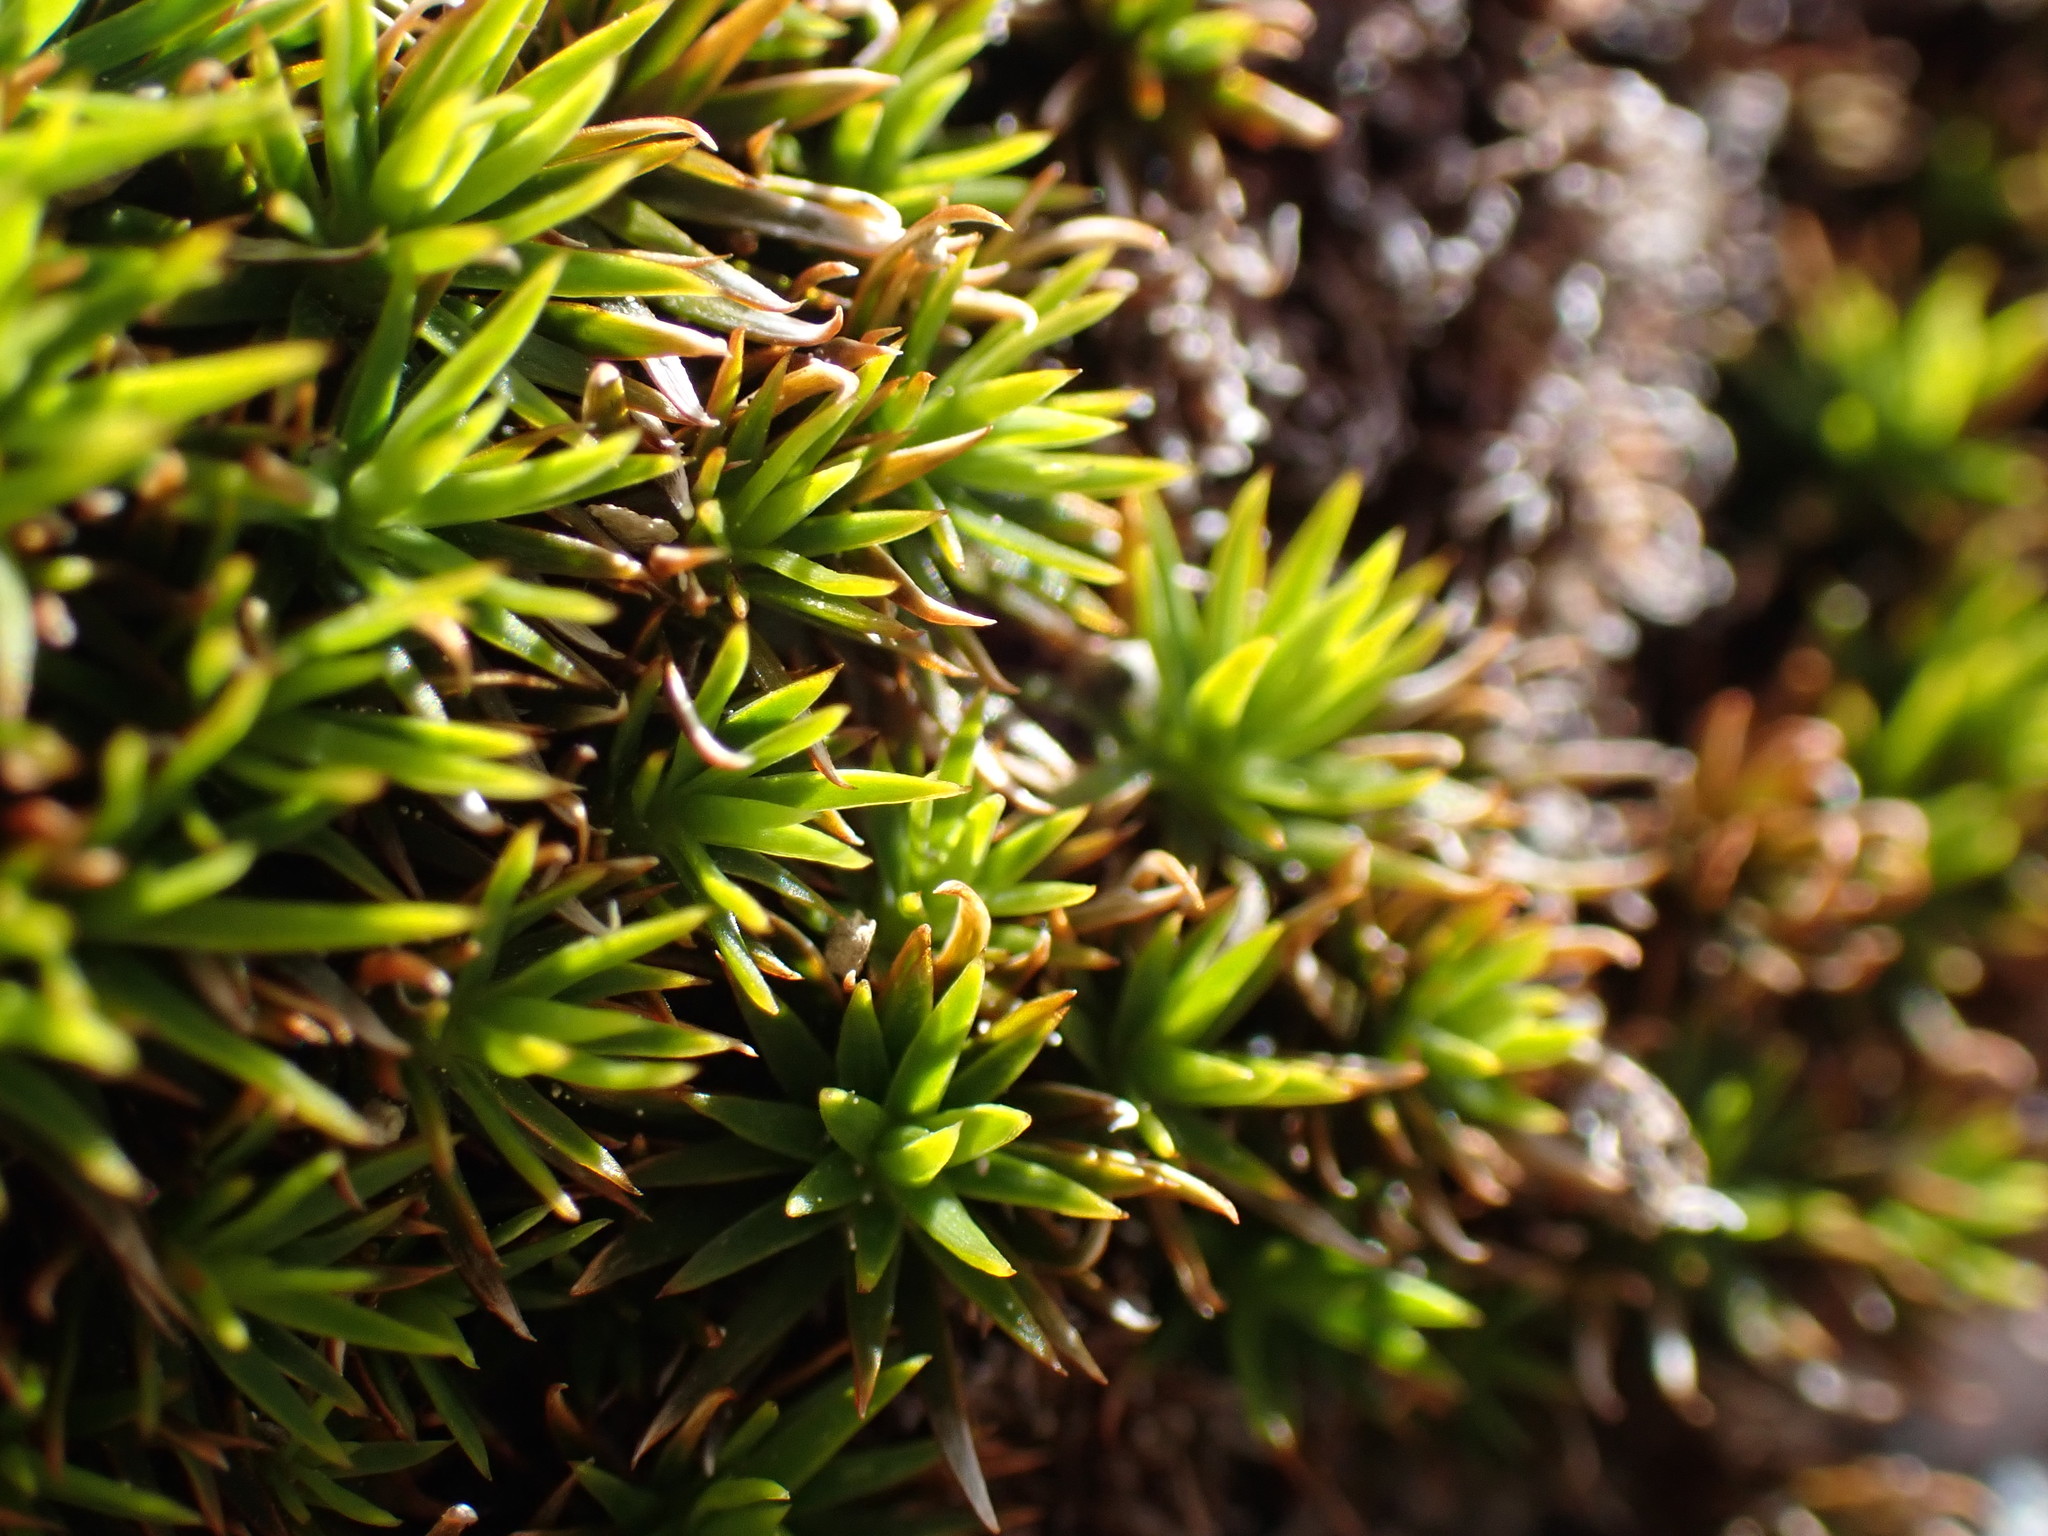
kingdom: Plantae
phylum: Bryophyta
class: Polytrichopsida
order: Polytrichales
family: Polytrichaceae
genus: Polytrichum
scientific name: Polytrichum juniperinum
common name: Juniper haircap moss
